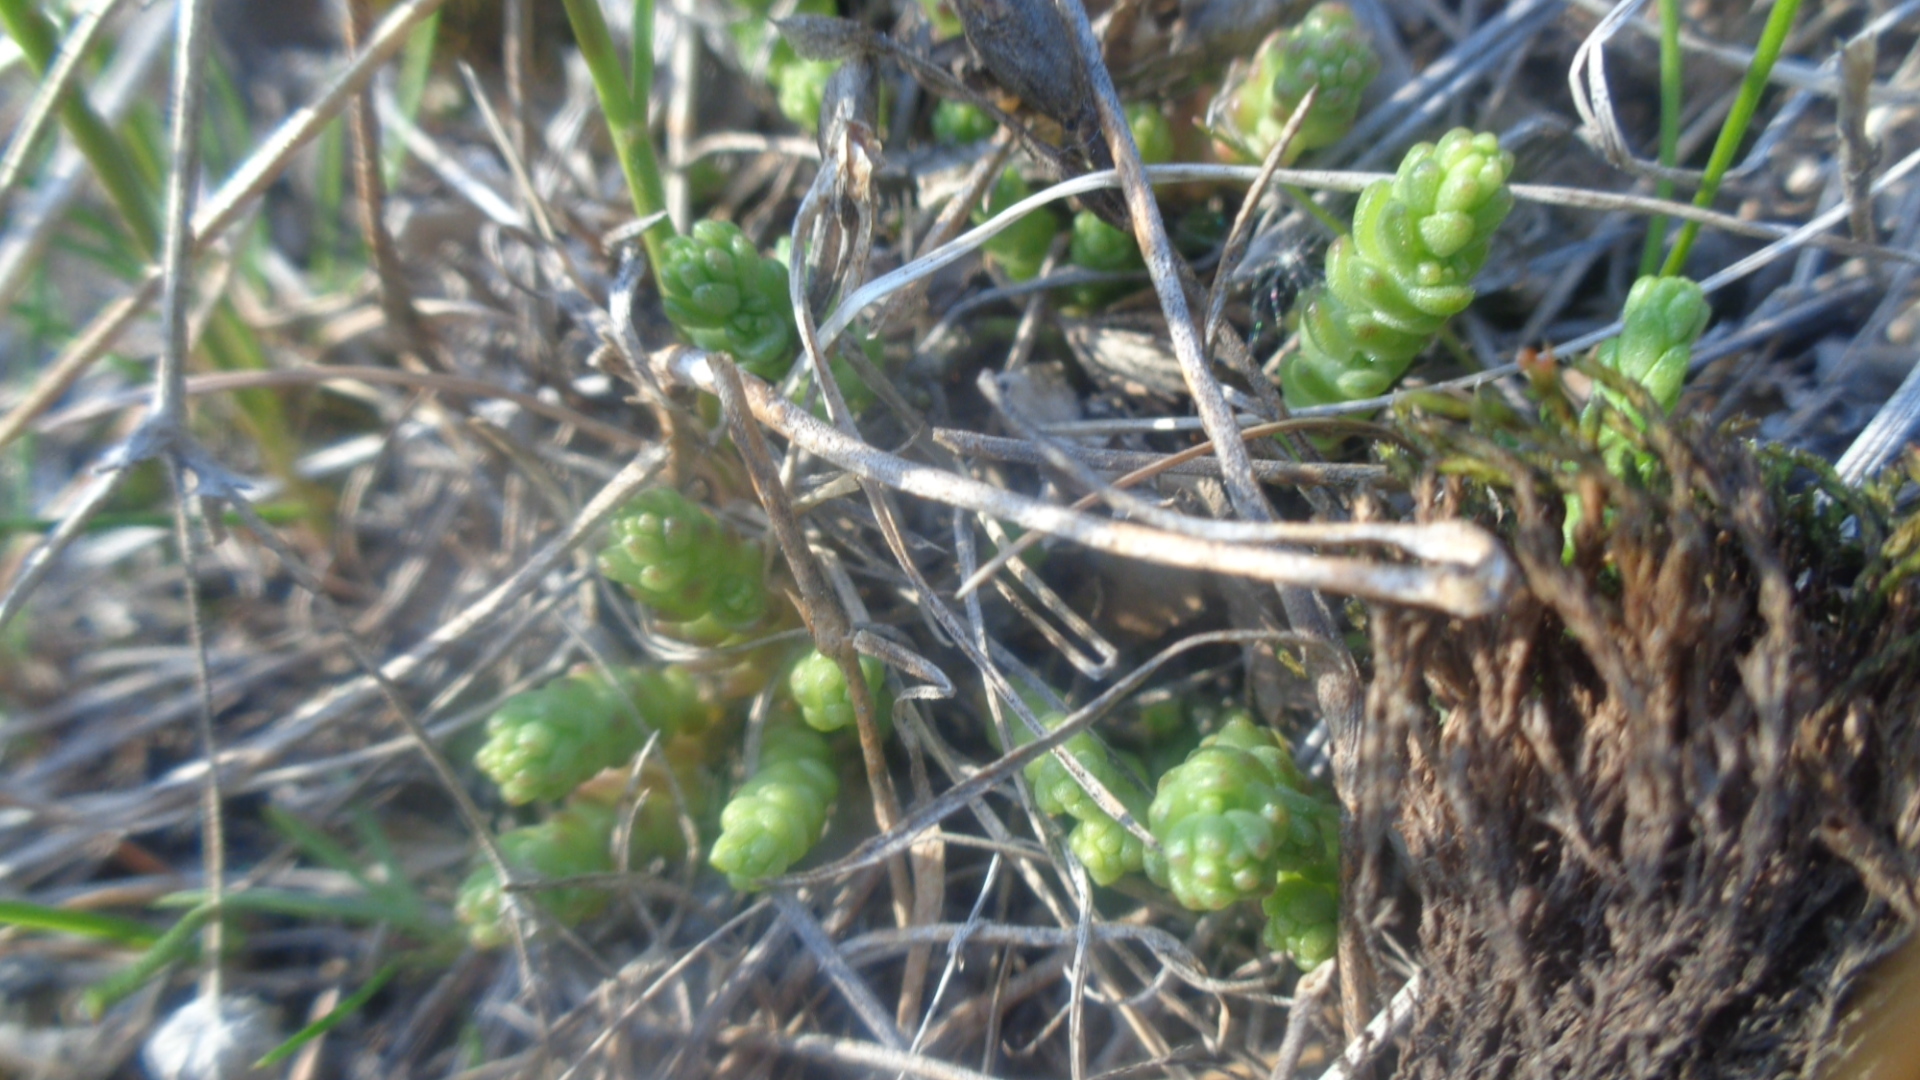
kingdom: Plantae
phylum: Tracheophyta
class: Magnoliopsida
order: Saxifragales
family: Crassulaceae
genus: Sedum
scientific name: Sedum acre
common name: Biting stonecrop
